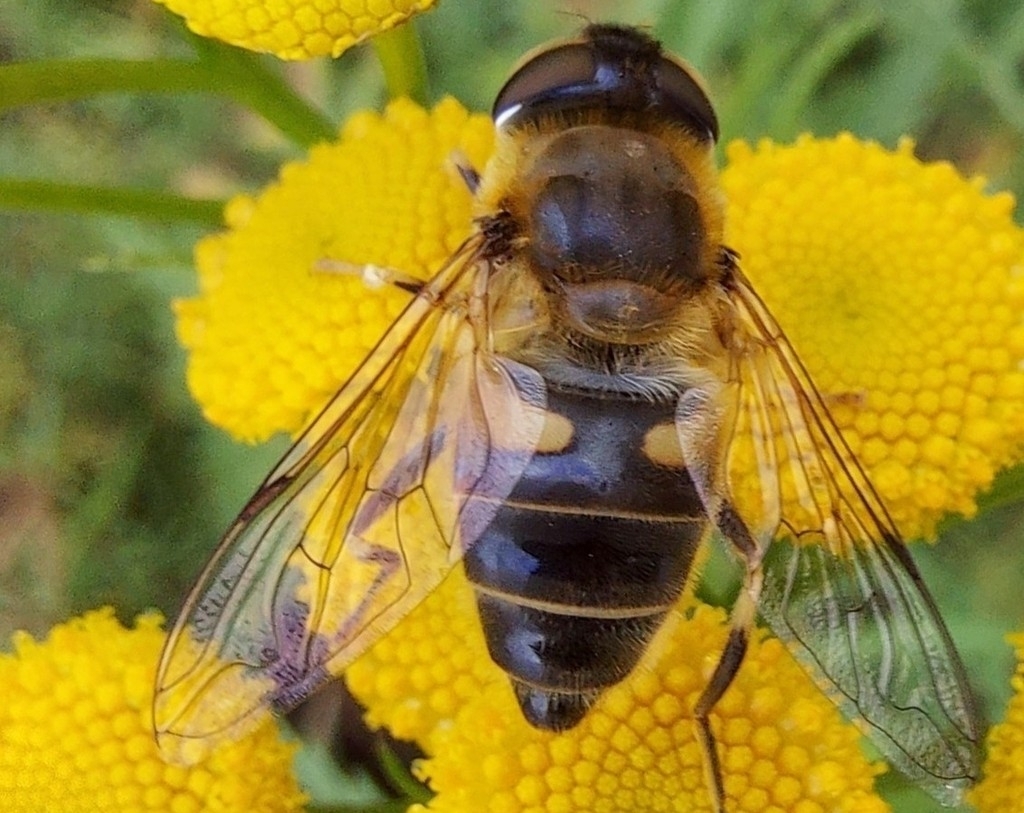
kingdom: Animalia
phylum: Arthropoda
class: Insecta
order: Diptera
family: Syrphidae
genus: Eristalis
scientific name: Eristalis pertinax
